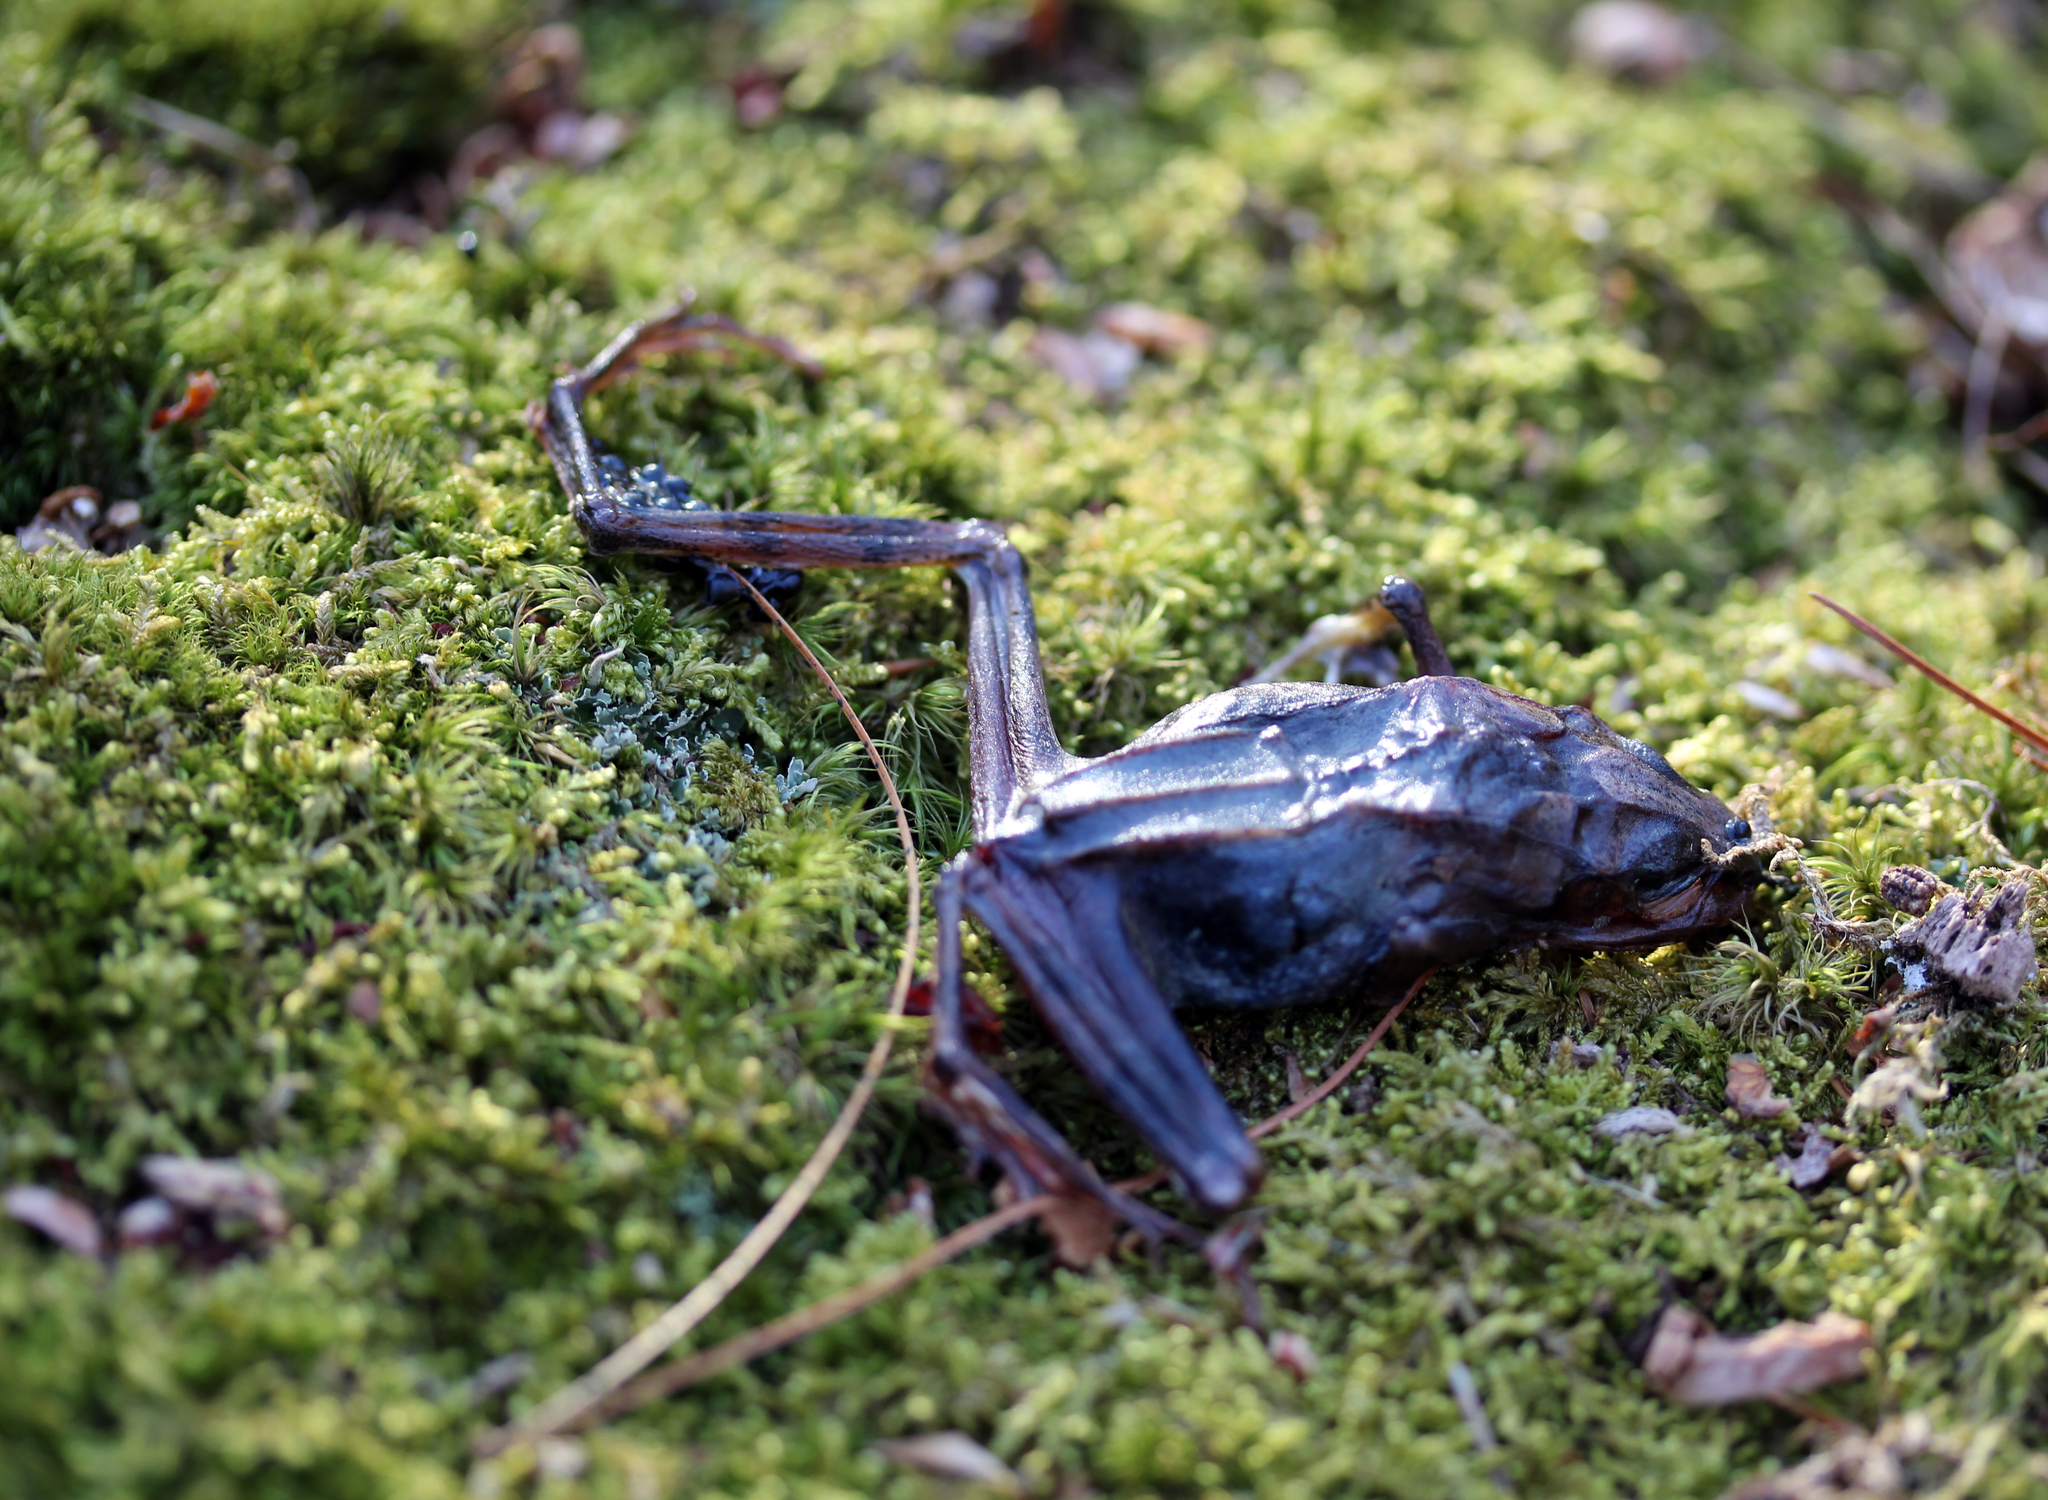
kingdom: Animalia
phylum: Chordata
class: Amphibia
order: Anura
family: Ranidae
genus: Lithobates
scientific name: Lithobates sylvaticus
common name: Wood frog
